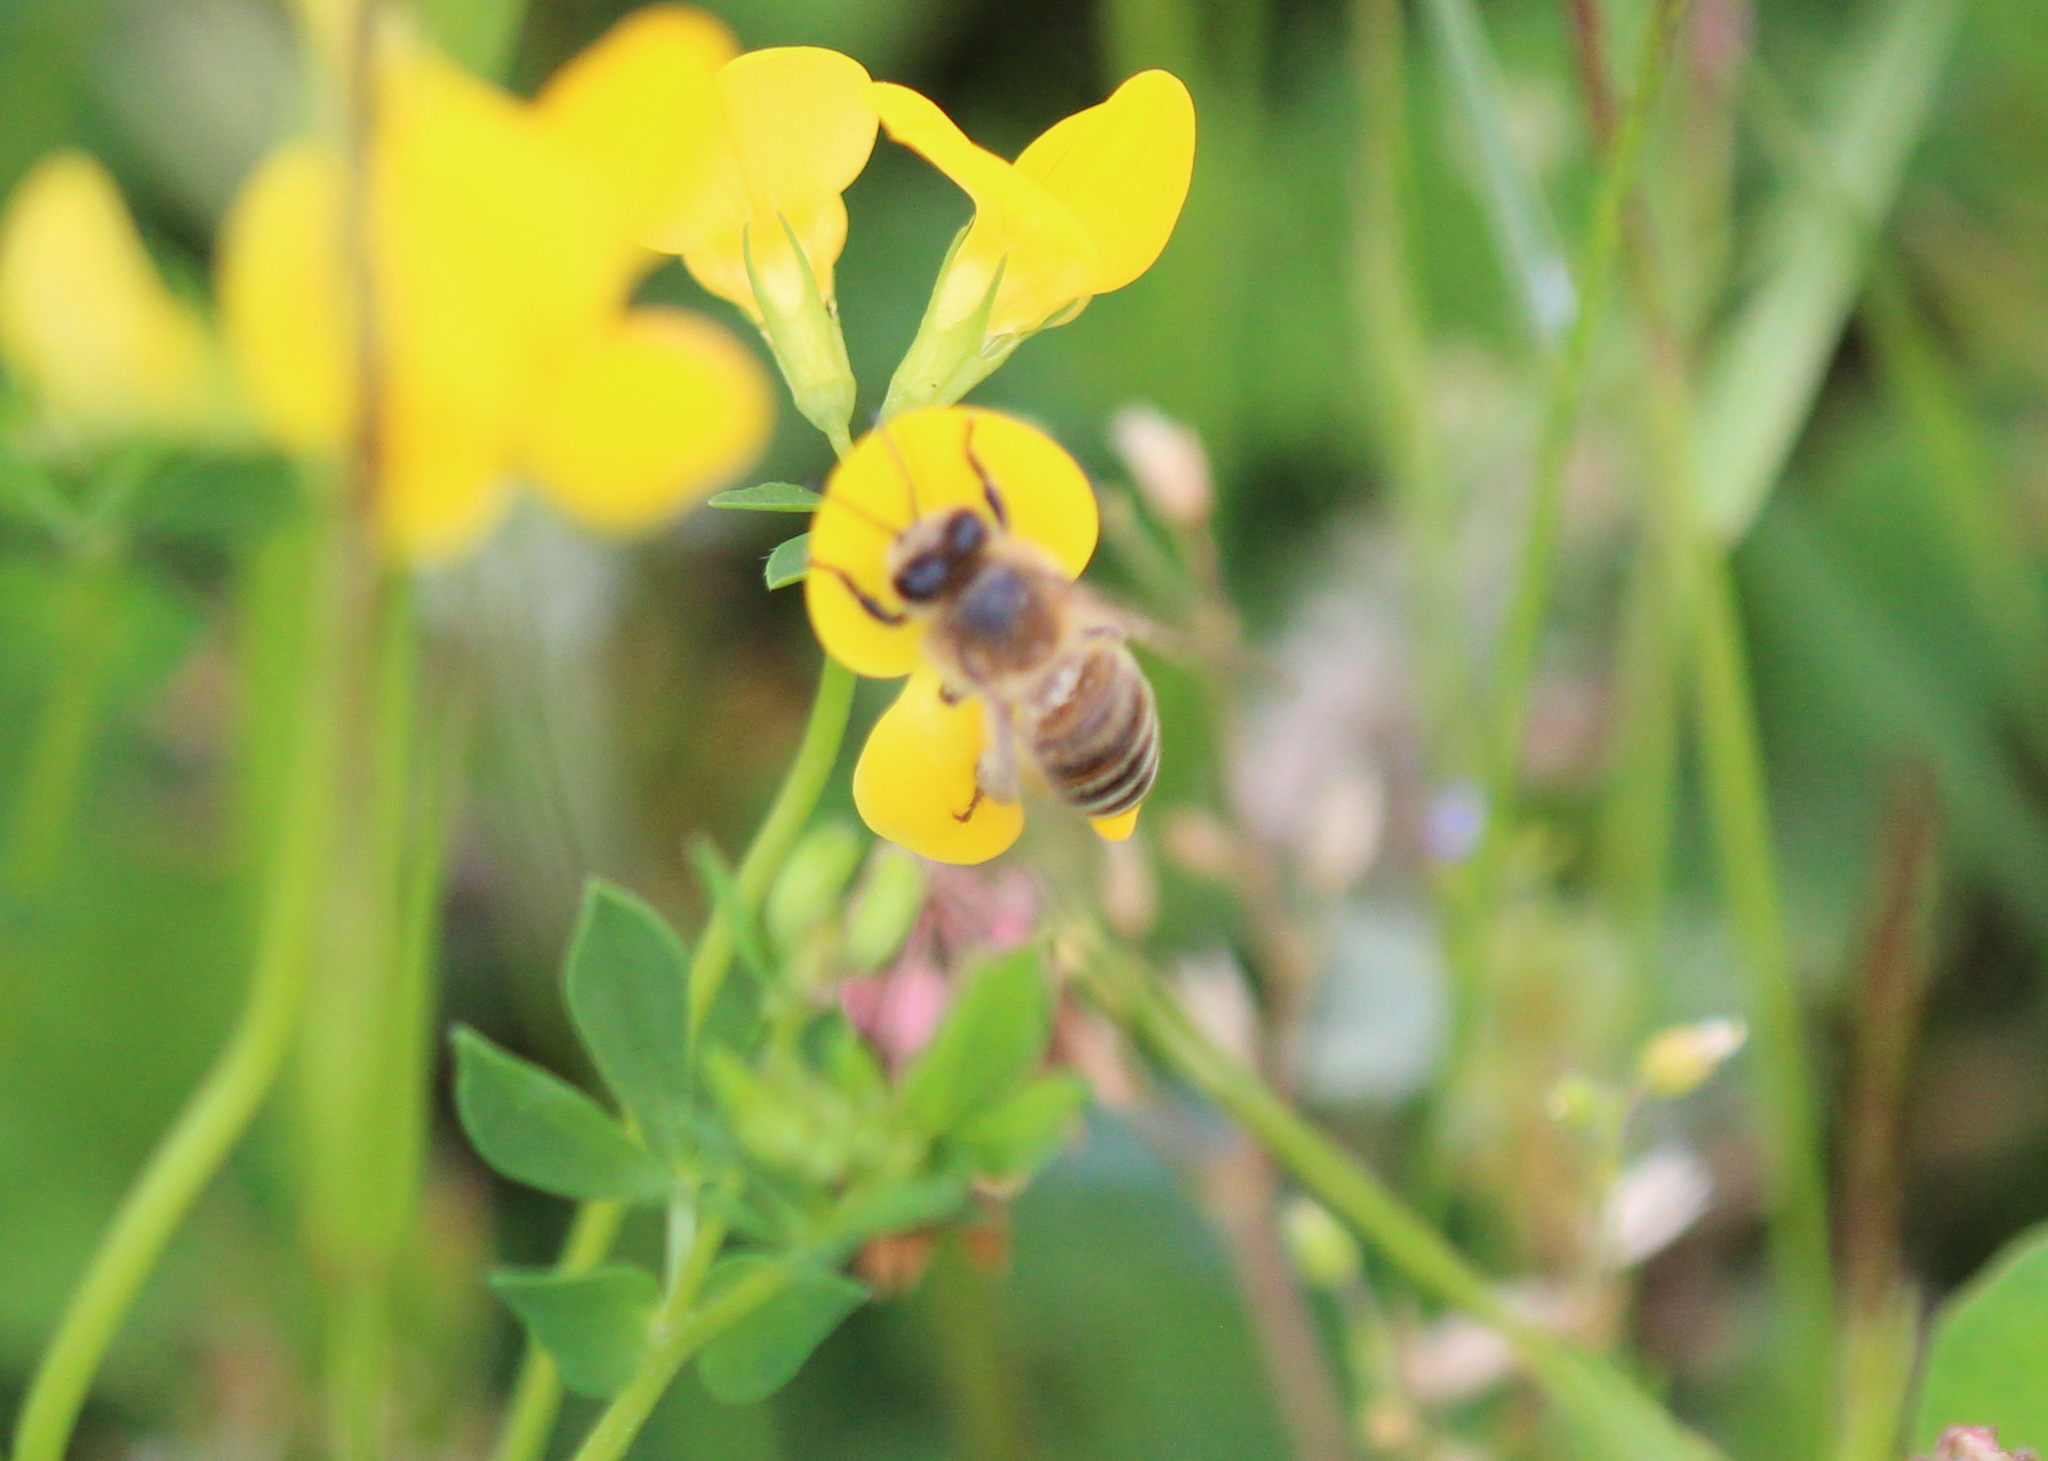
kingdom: Animalia
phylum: Arthropoda
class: Insecta
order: Hymenoptera
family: Apidae
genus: Apis
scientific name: Apis mellifera
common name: Honey bee
